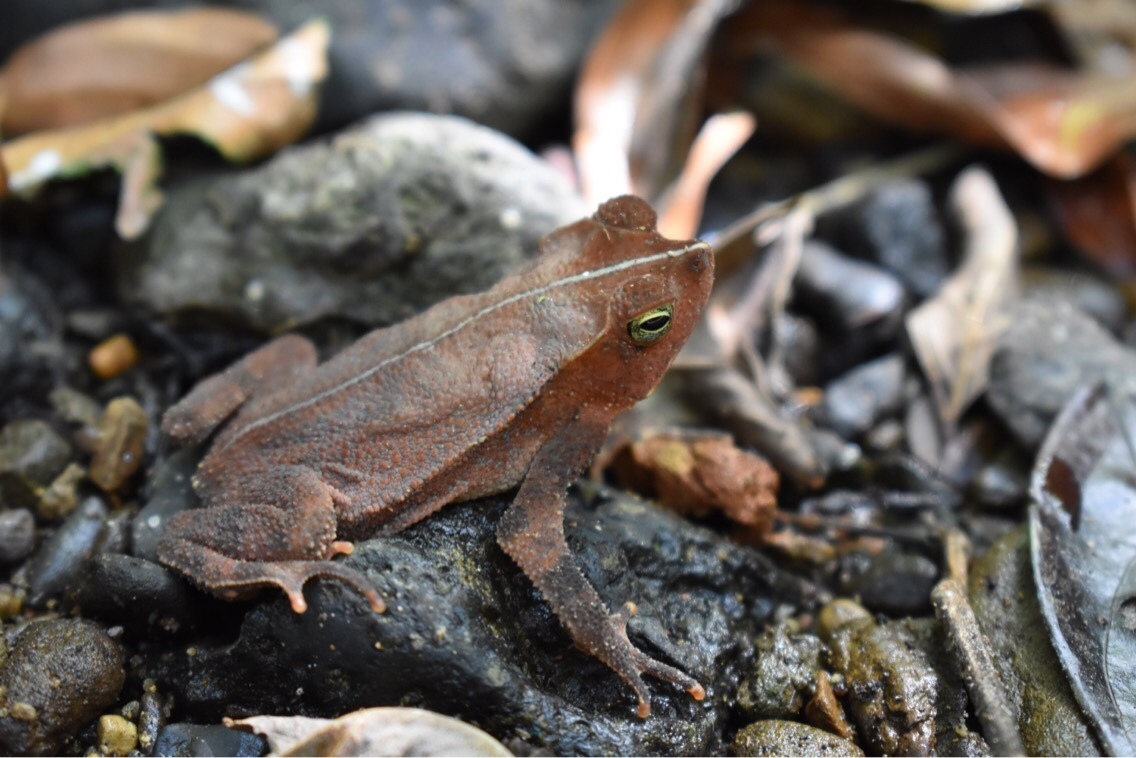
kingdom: Animalia
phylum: Chordata
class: Amphibia
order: Anura
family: Bufonidae
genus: Rhinella
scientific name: Rhinella alata
